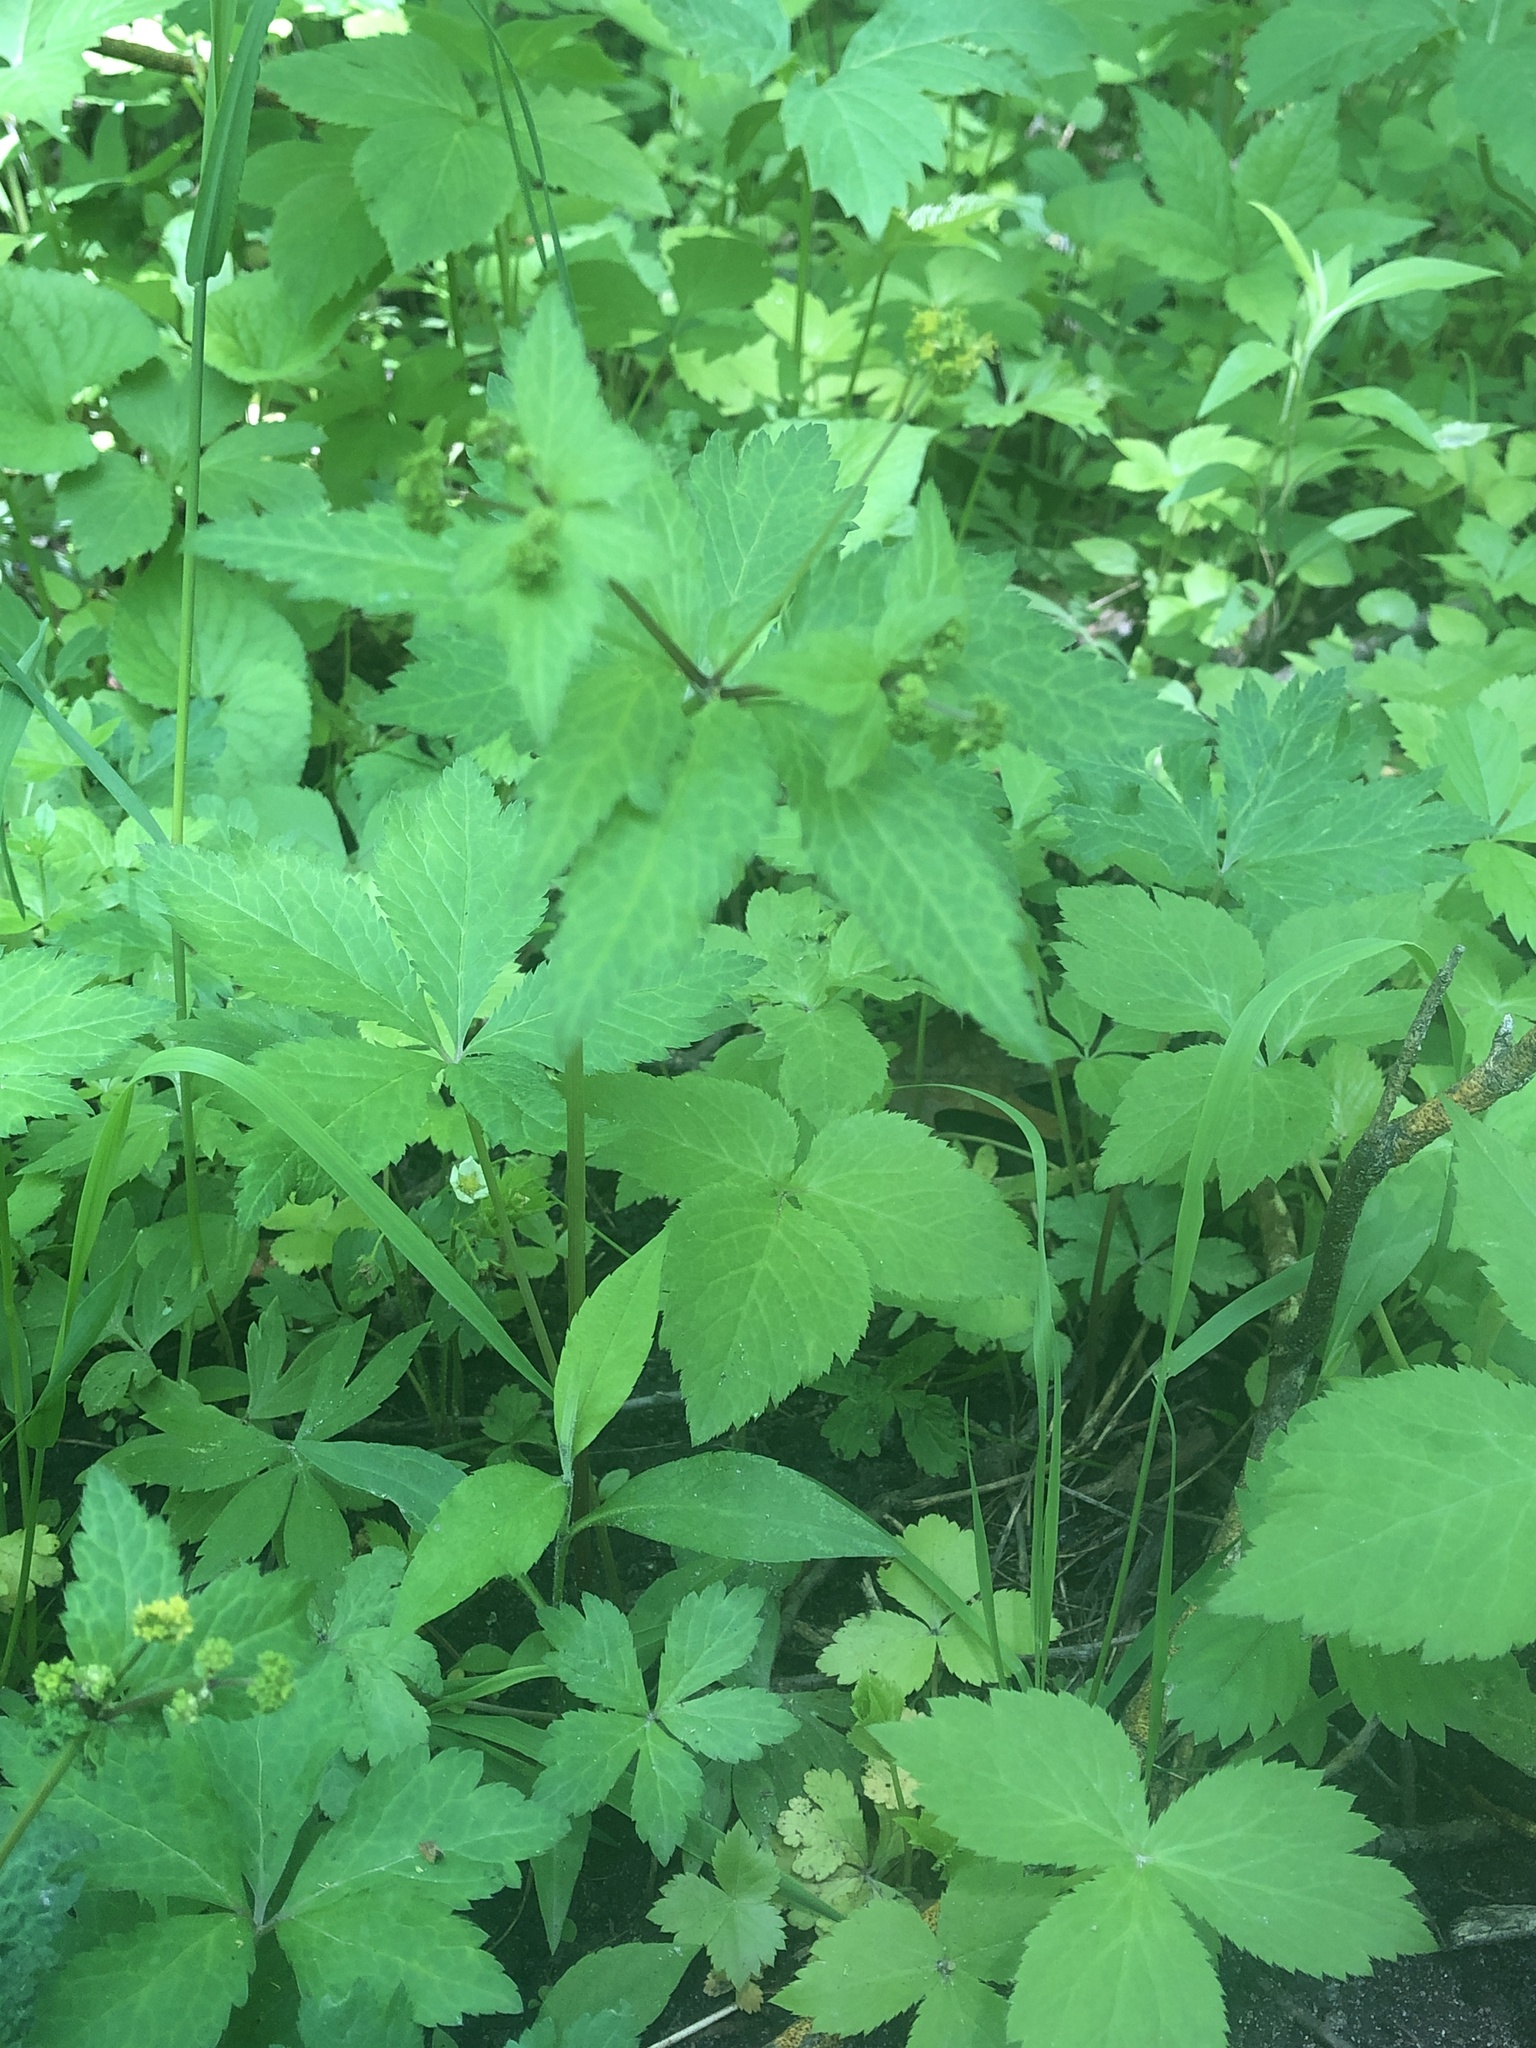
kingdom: Plantae
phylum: Tracheophyta
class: Magnoliopsida
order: Apiales
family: Apiaceae
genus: Sanicula
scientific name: Sanicula odorata
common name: Cluster sanicle
